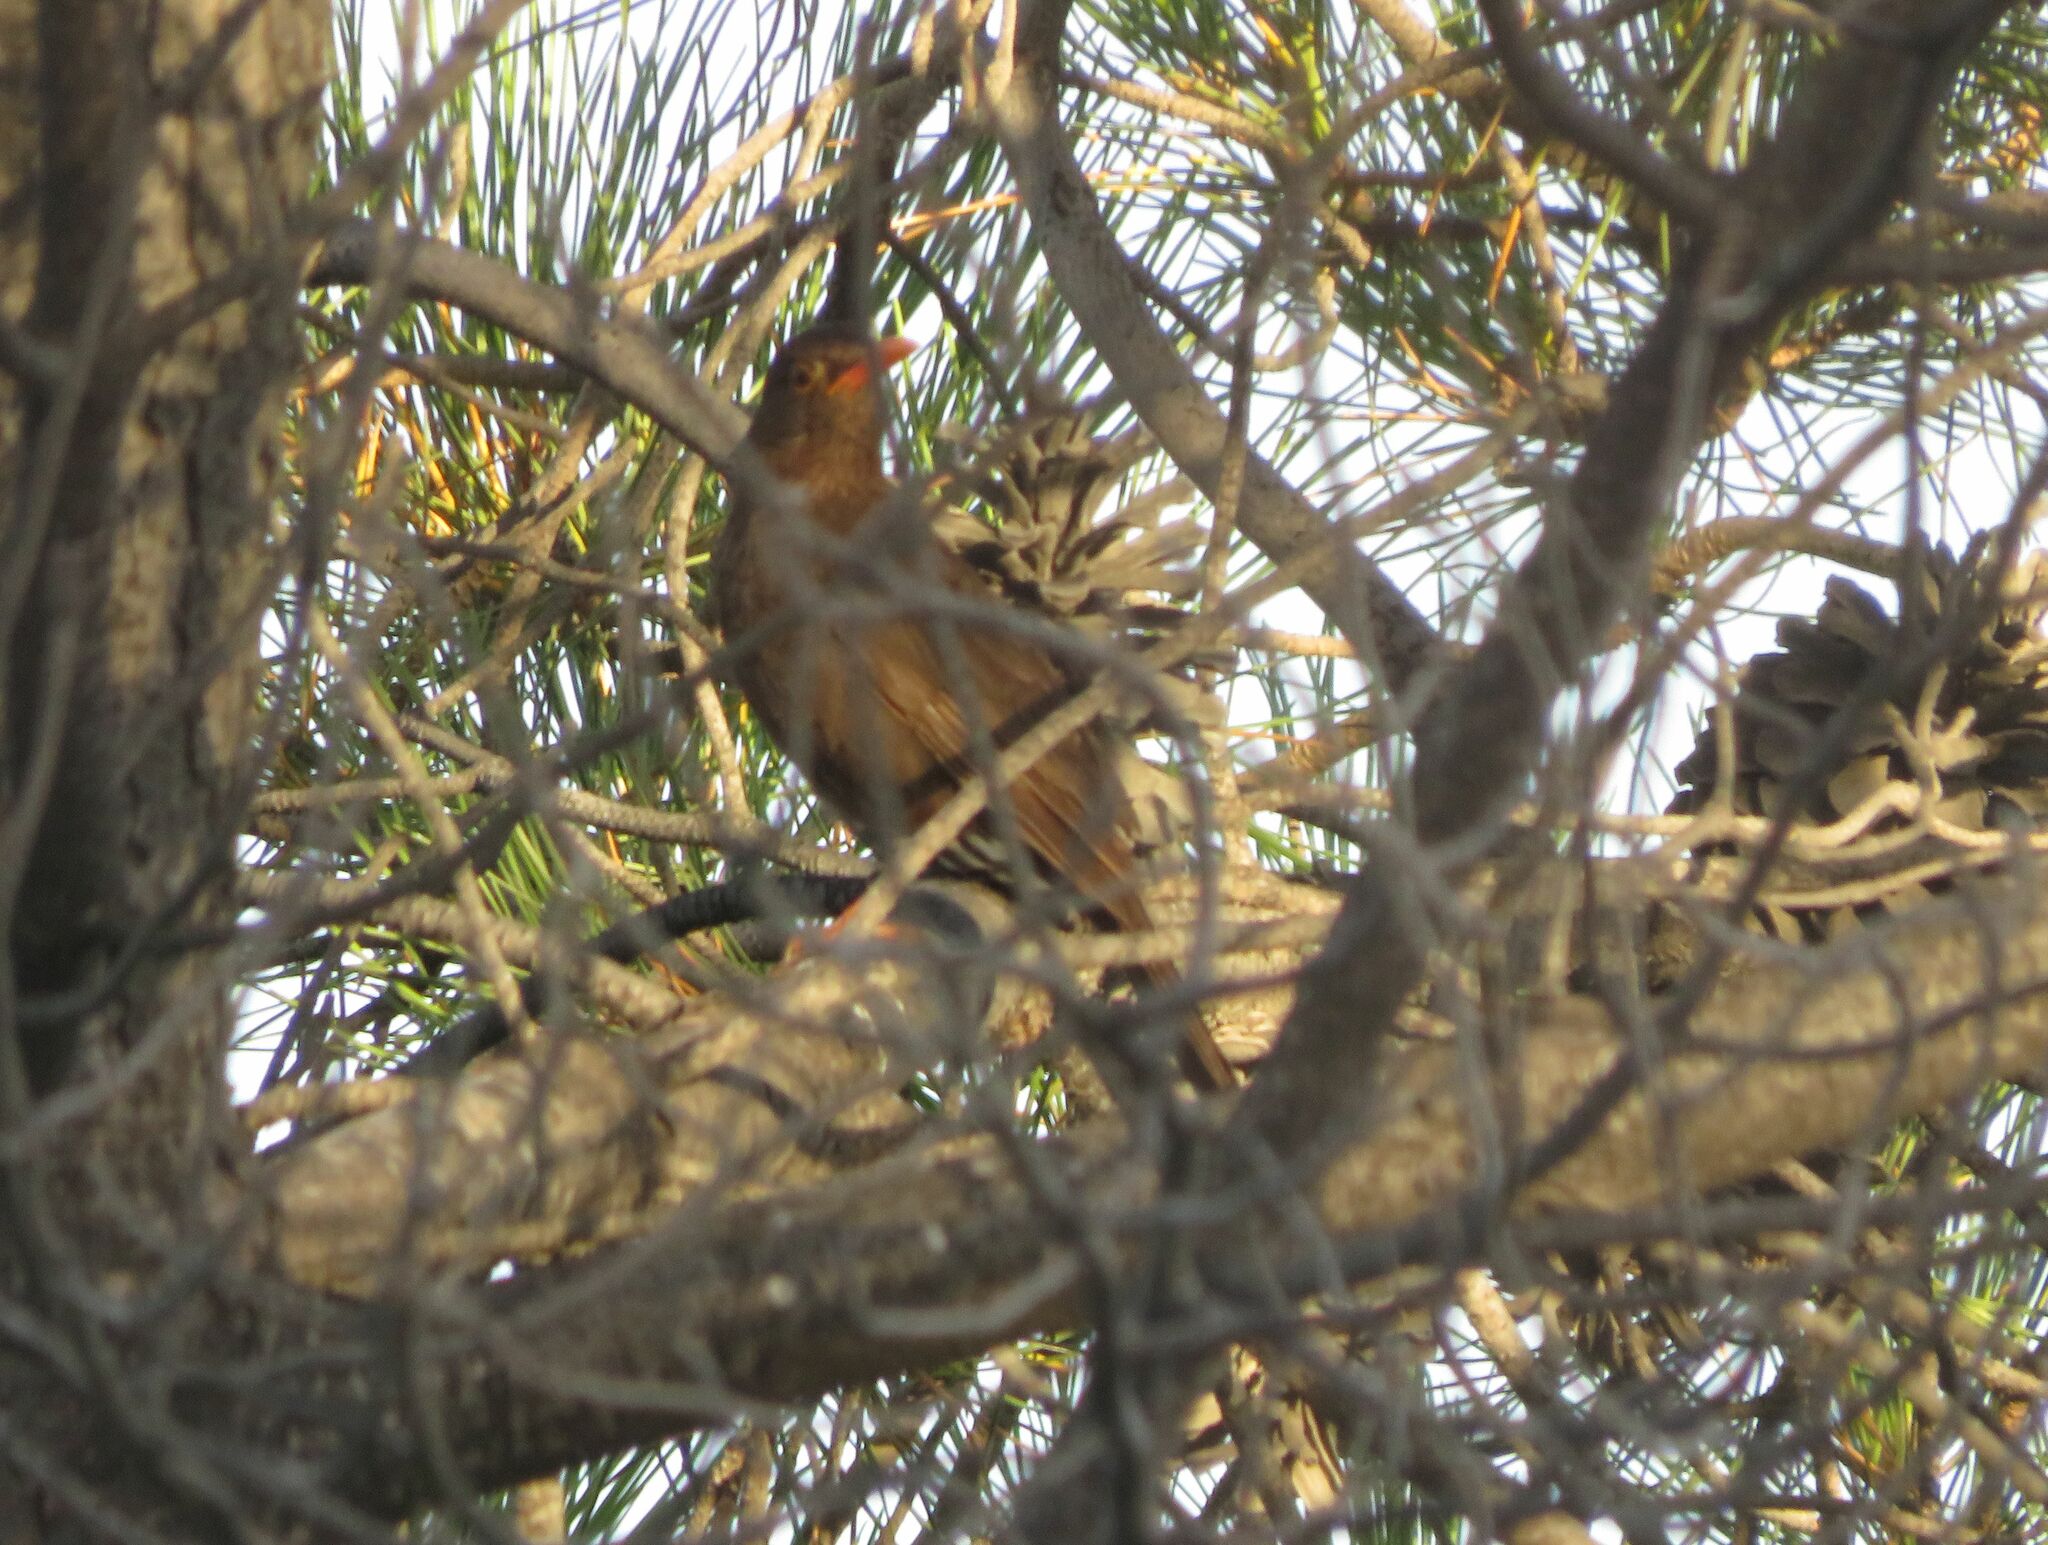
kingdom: Animalia
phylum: Chordata
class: Aves
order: Passeriformes
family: Turdidae
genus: Turdus
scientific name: Turdus chiguanco
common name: Chiguanco thrush
